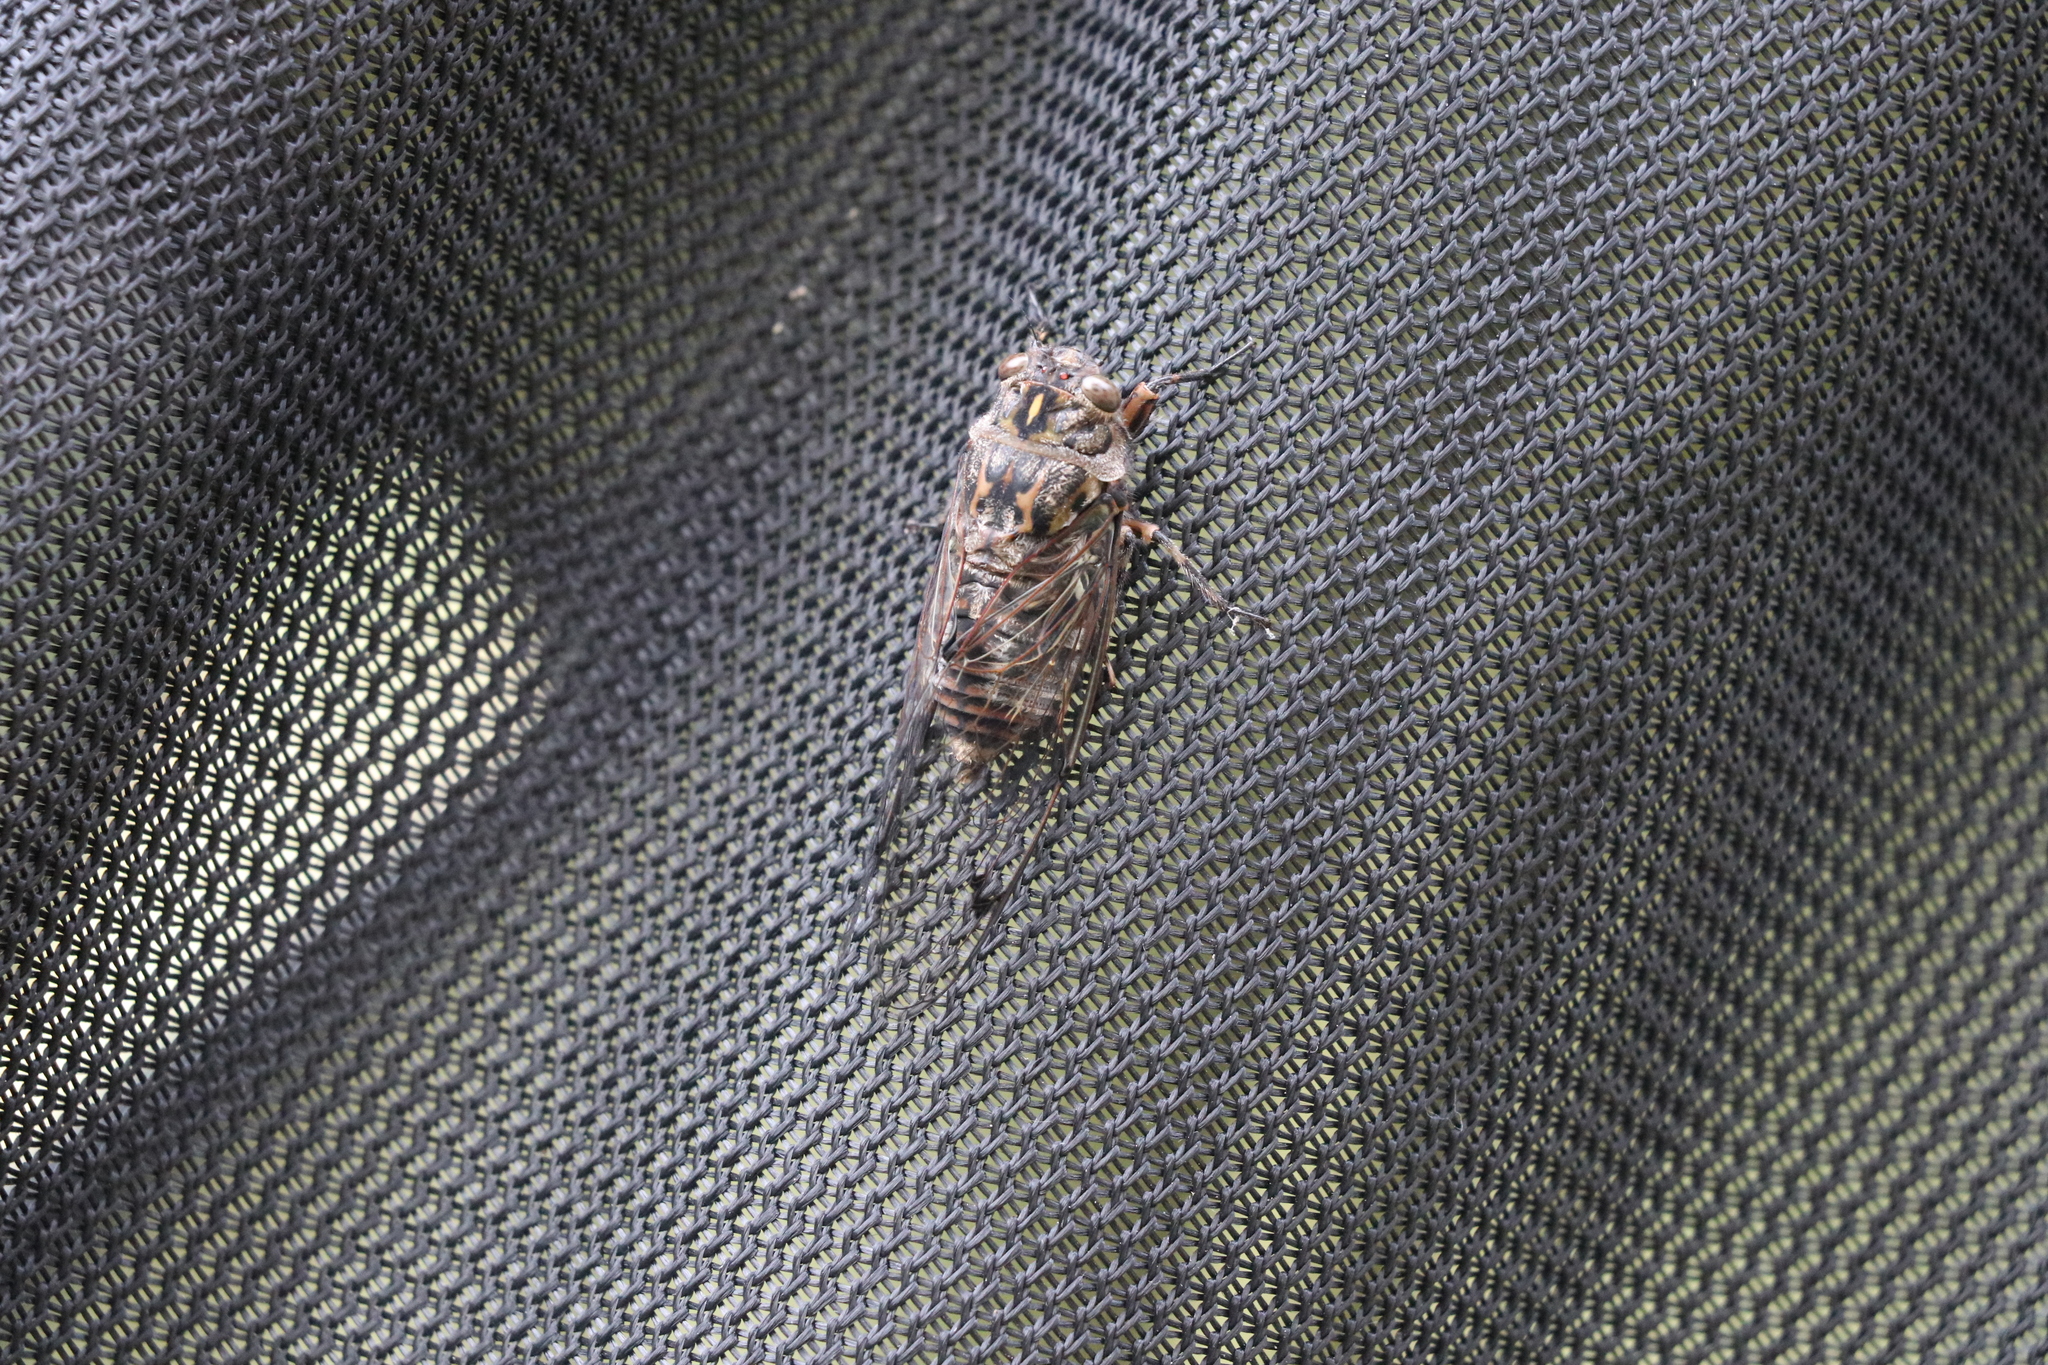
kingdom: Animalia
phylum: Arthropoda
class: Insecta
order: Hemiptera
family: Cicadidae
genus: Amphipsalta
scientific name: Amphipsalta cingulata
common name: Clapping cicada
